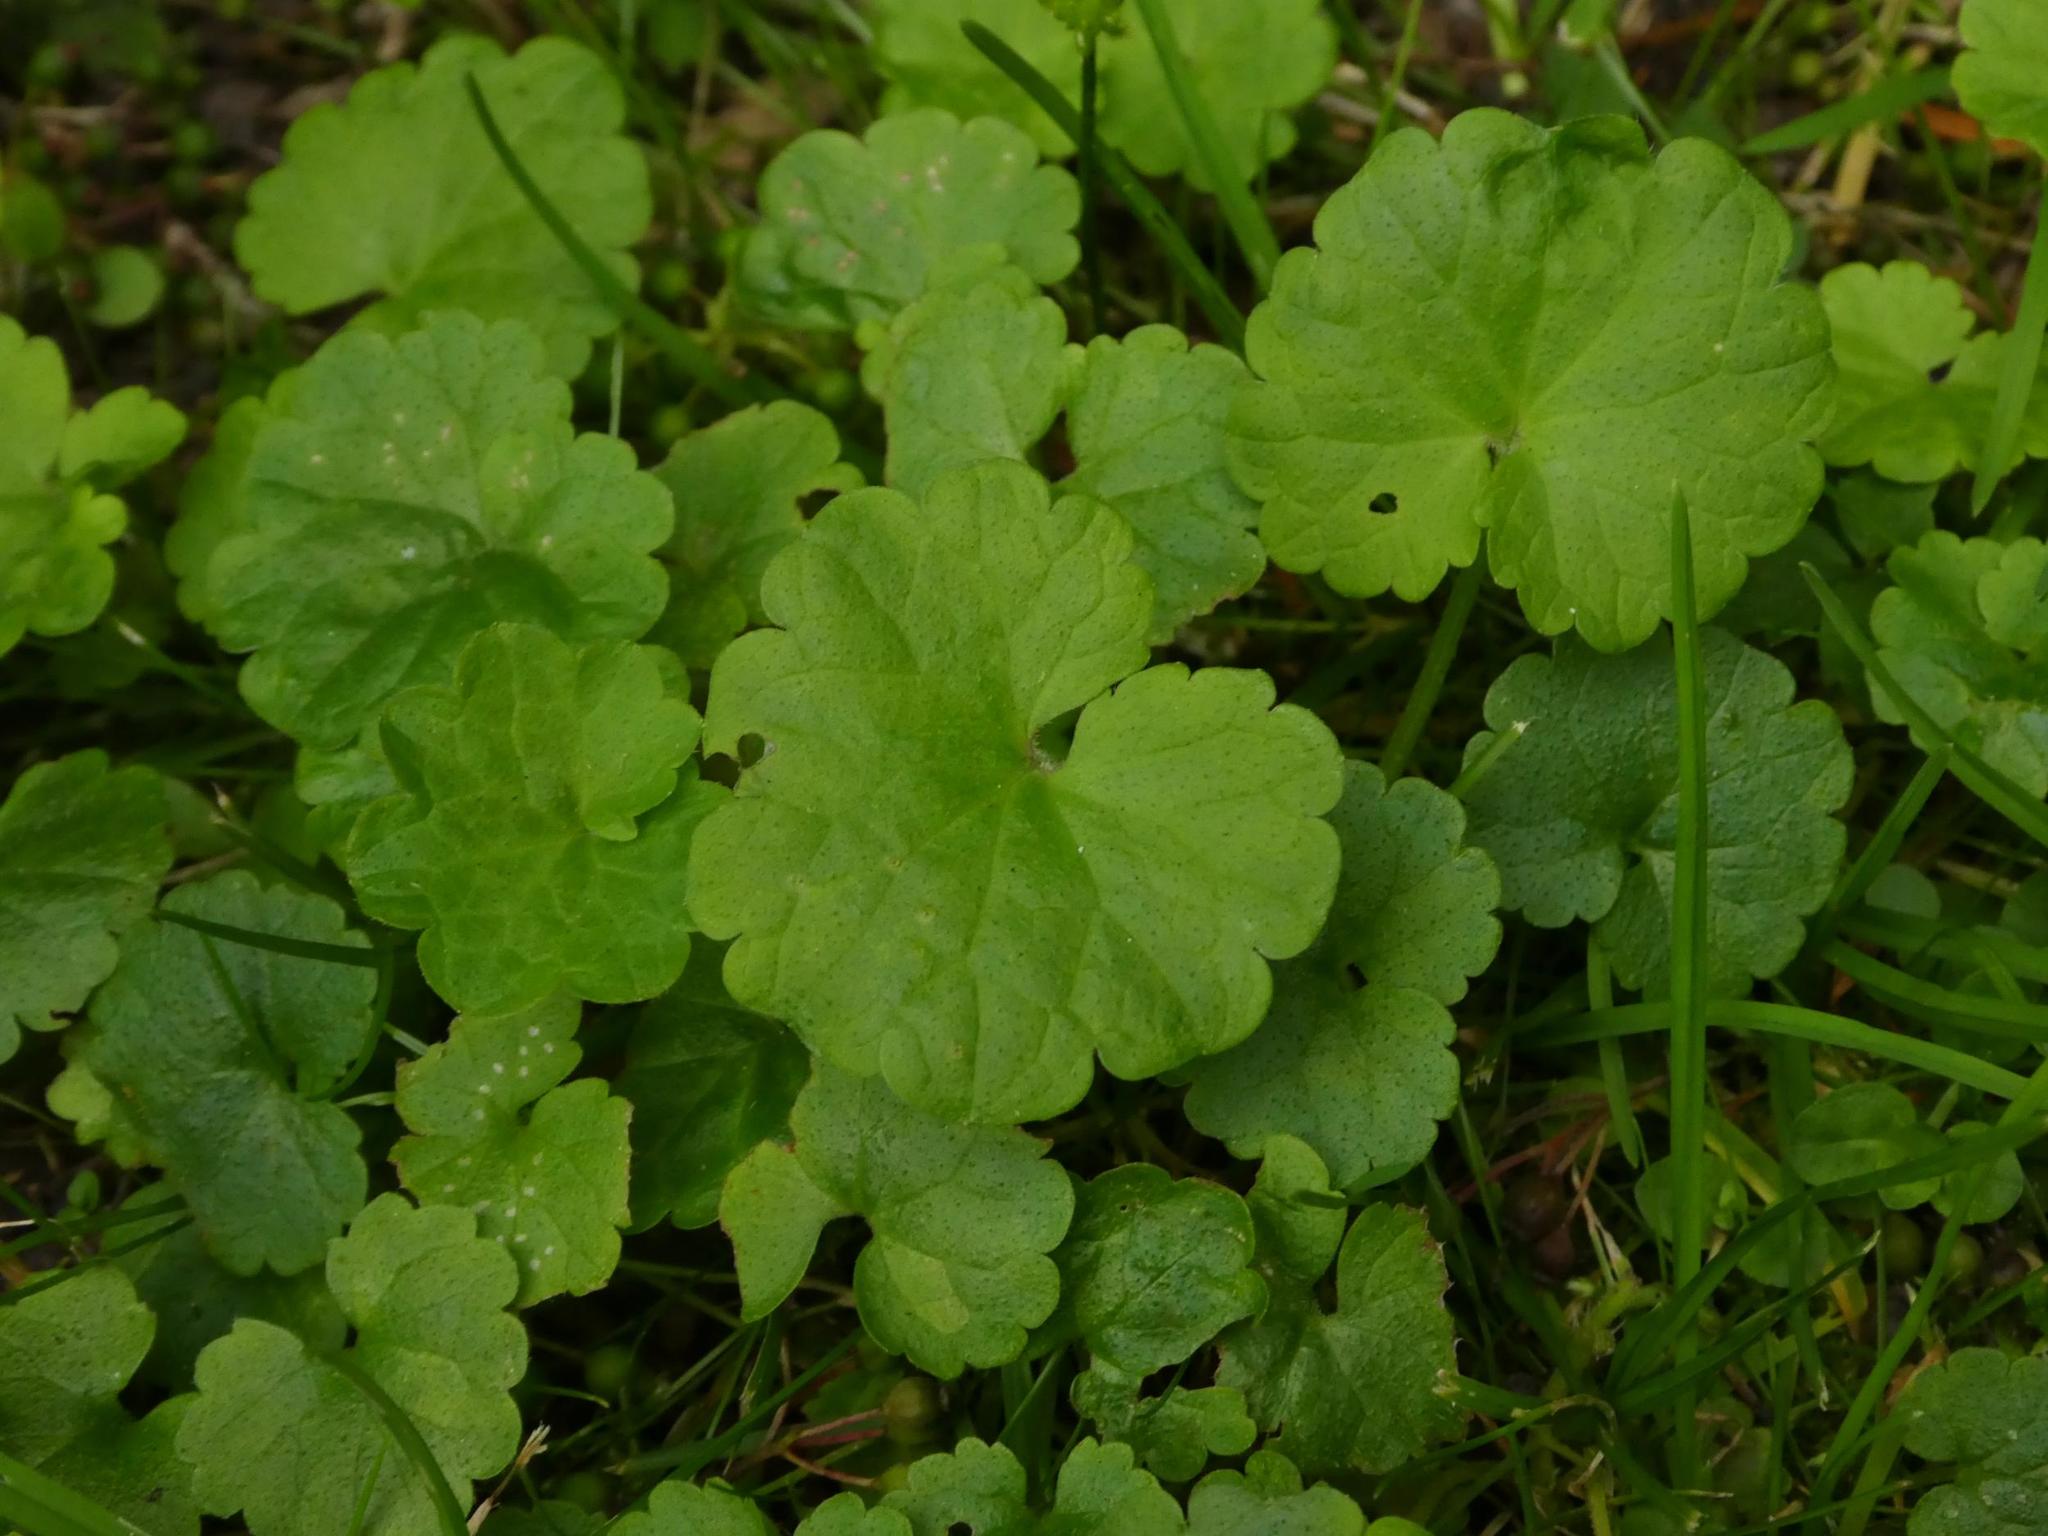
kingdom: Plantae
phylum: Tracheophyta
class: Magnoliopsida
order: Lamiales
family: Lamiaceae
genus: Glechoma
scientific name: Glechoma hederacea
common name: Ground ivy
